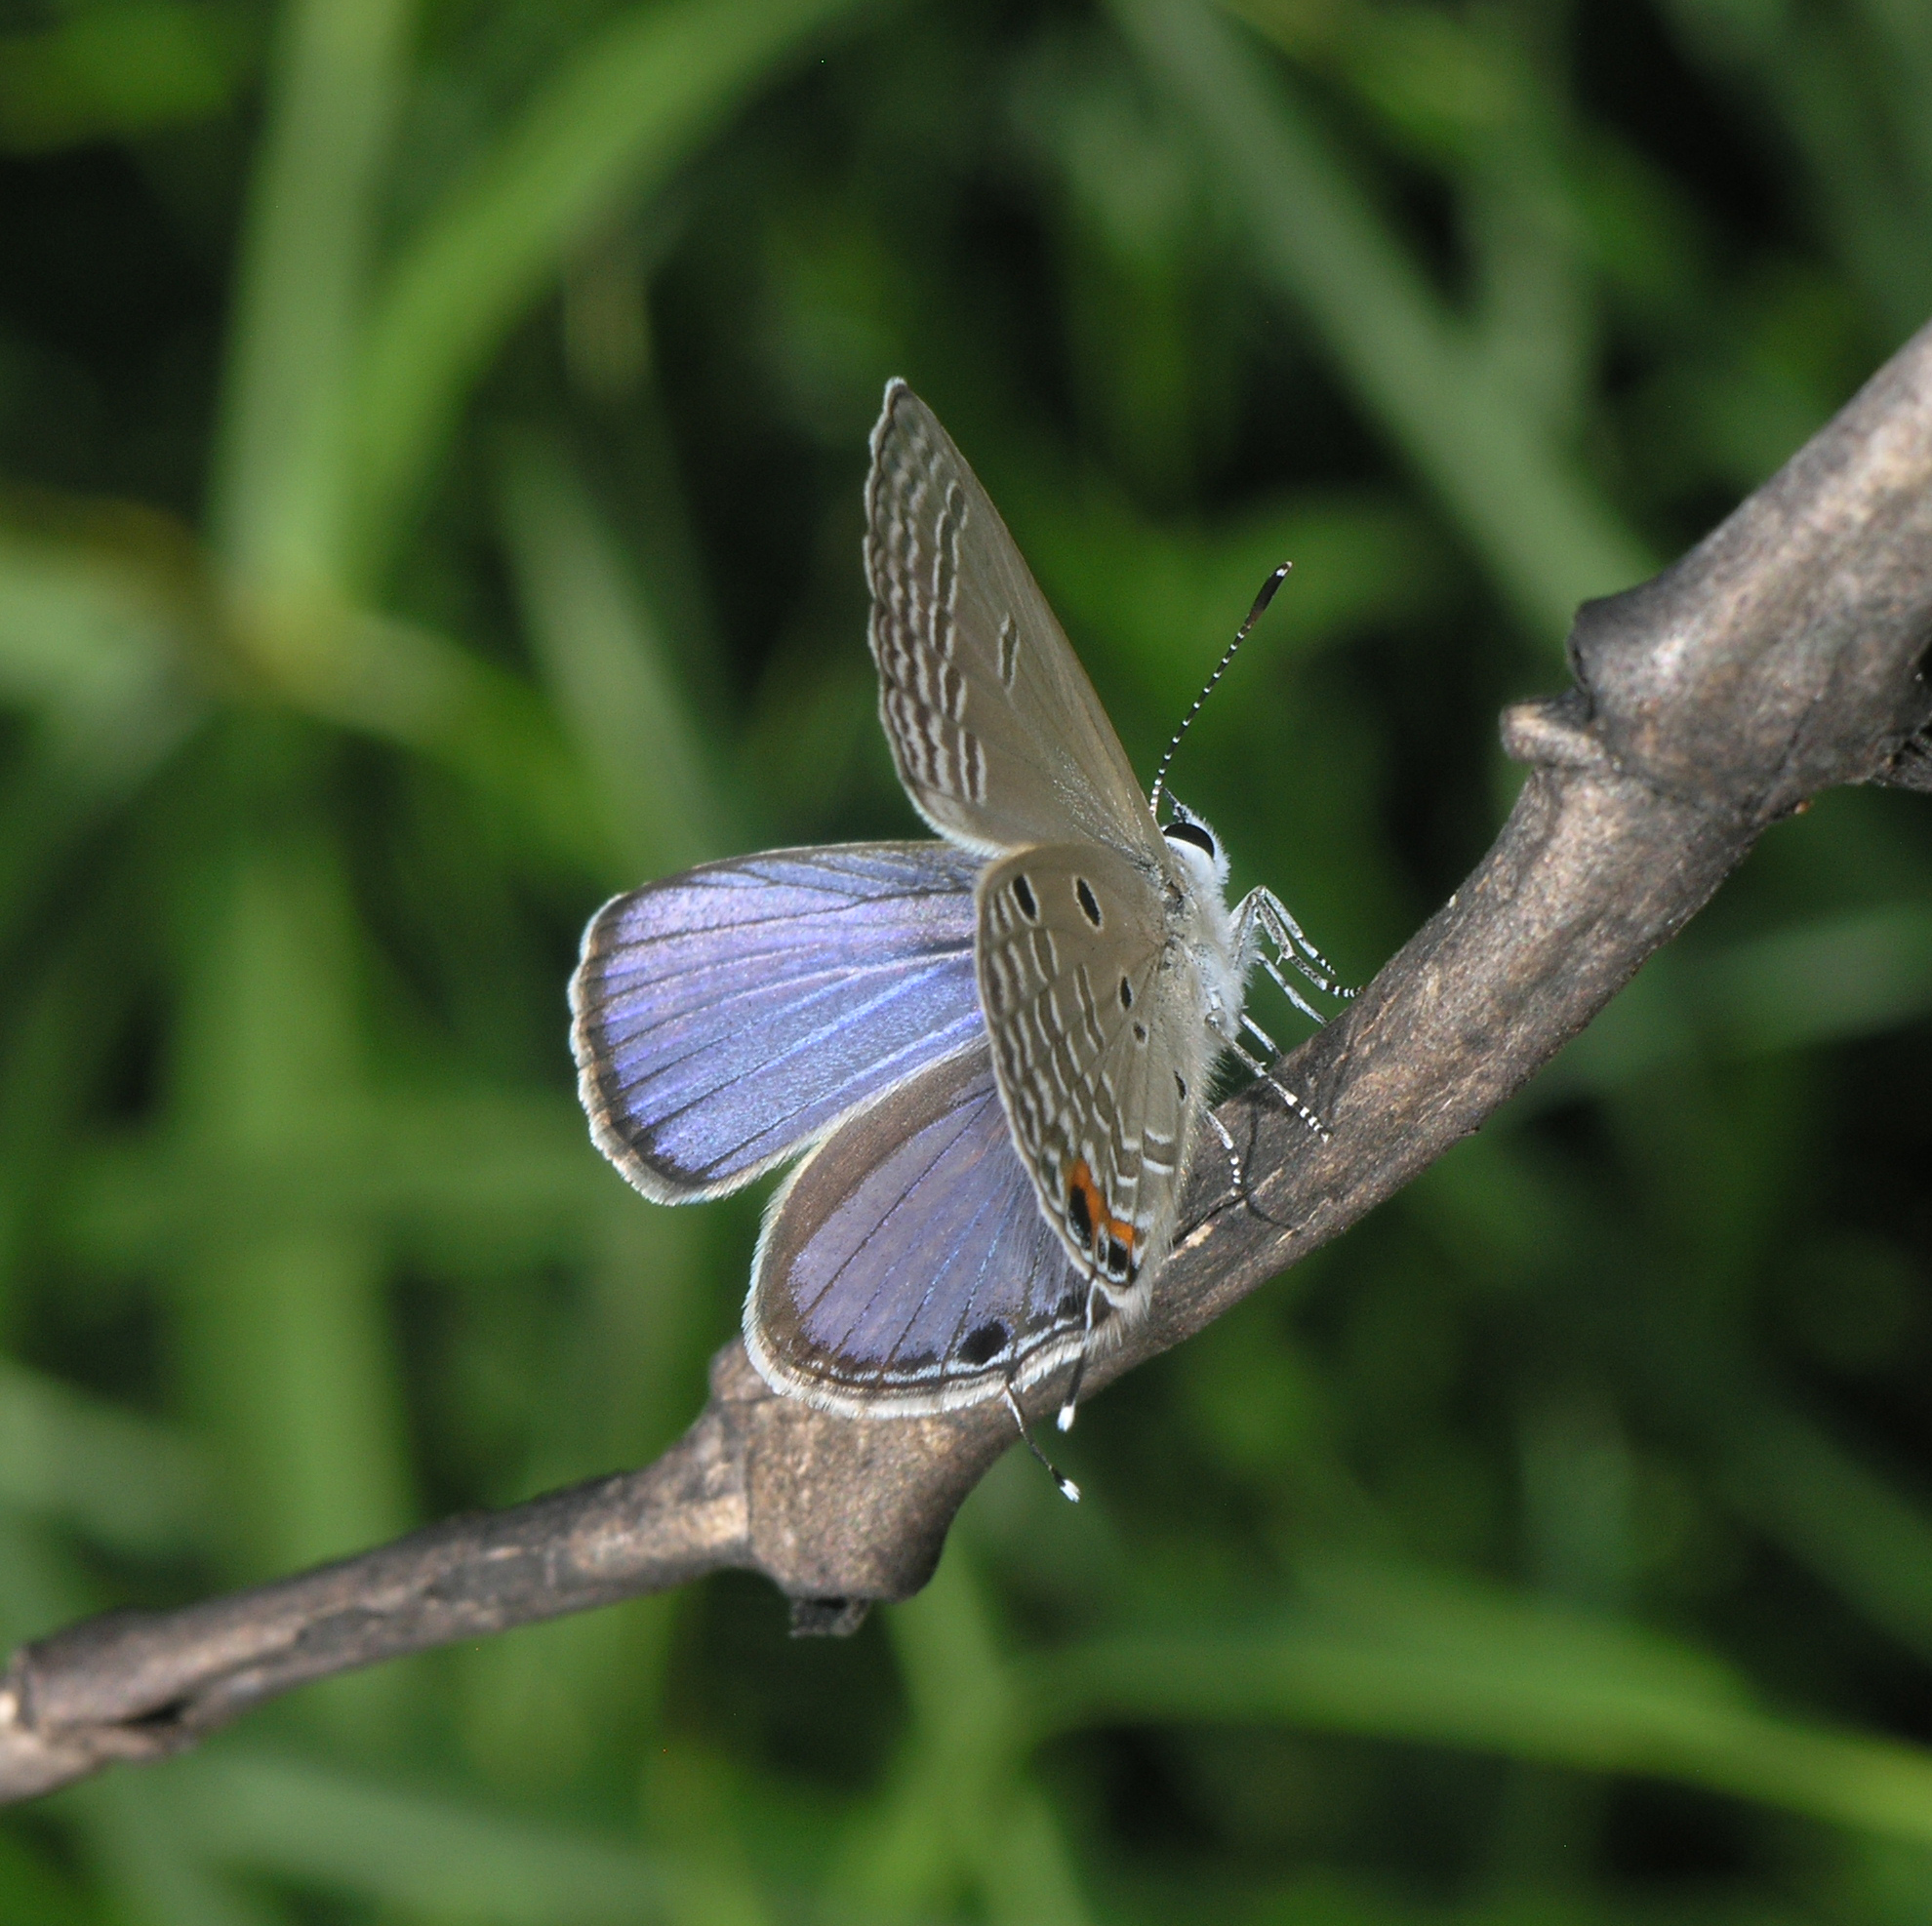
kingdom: Animalia
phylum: Arthropoda
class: Insecta
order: Lepidoptera
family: Lycaenidae
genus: Luthrodes
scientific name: Luthrodes pandava
